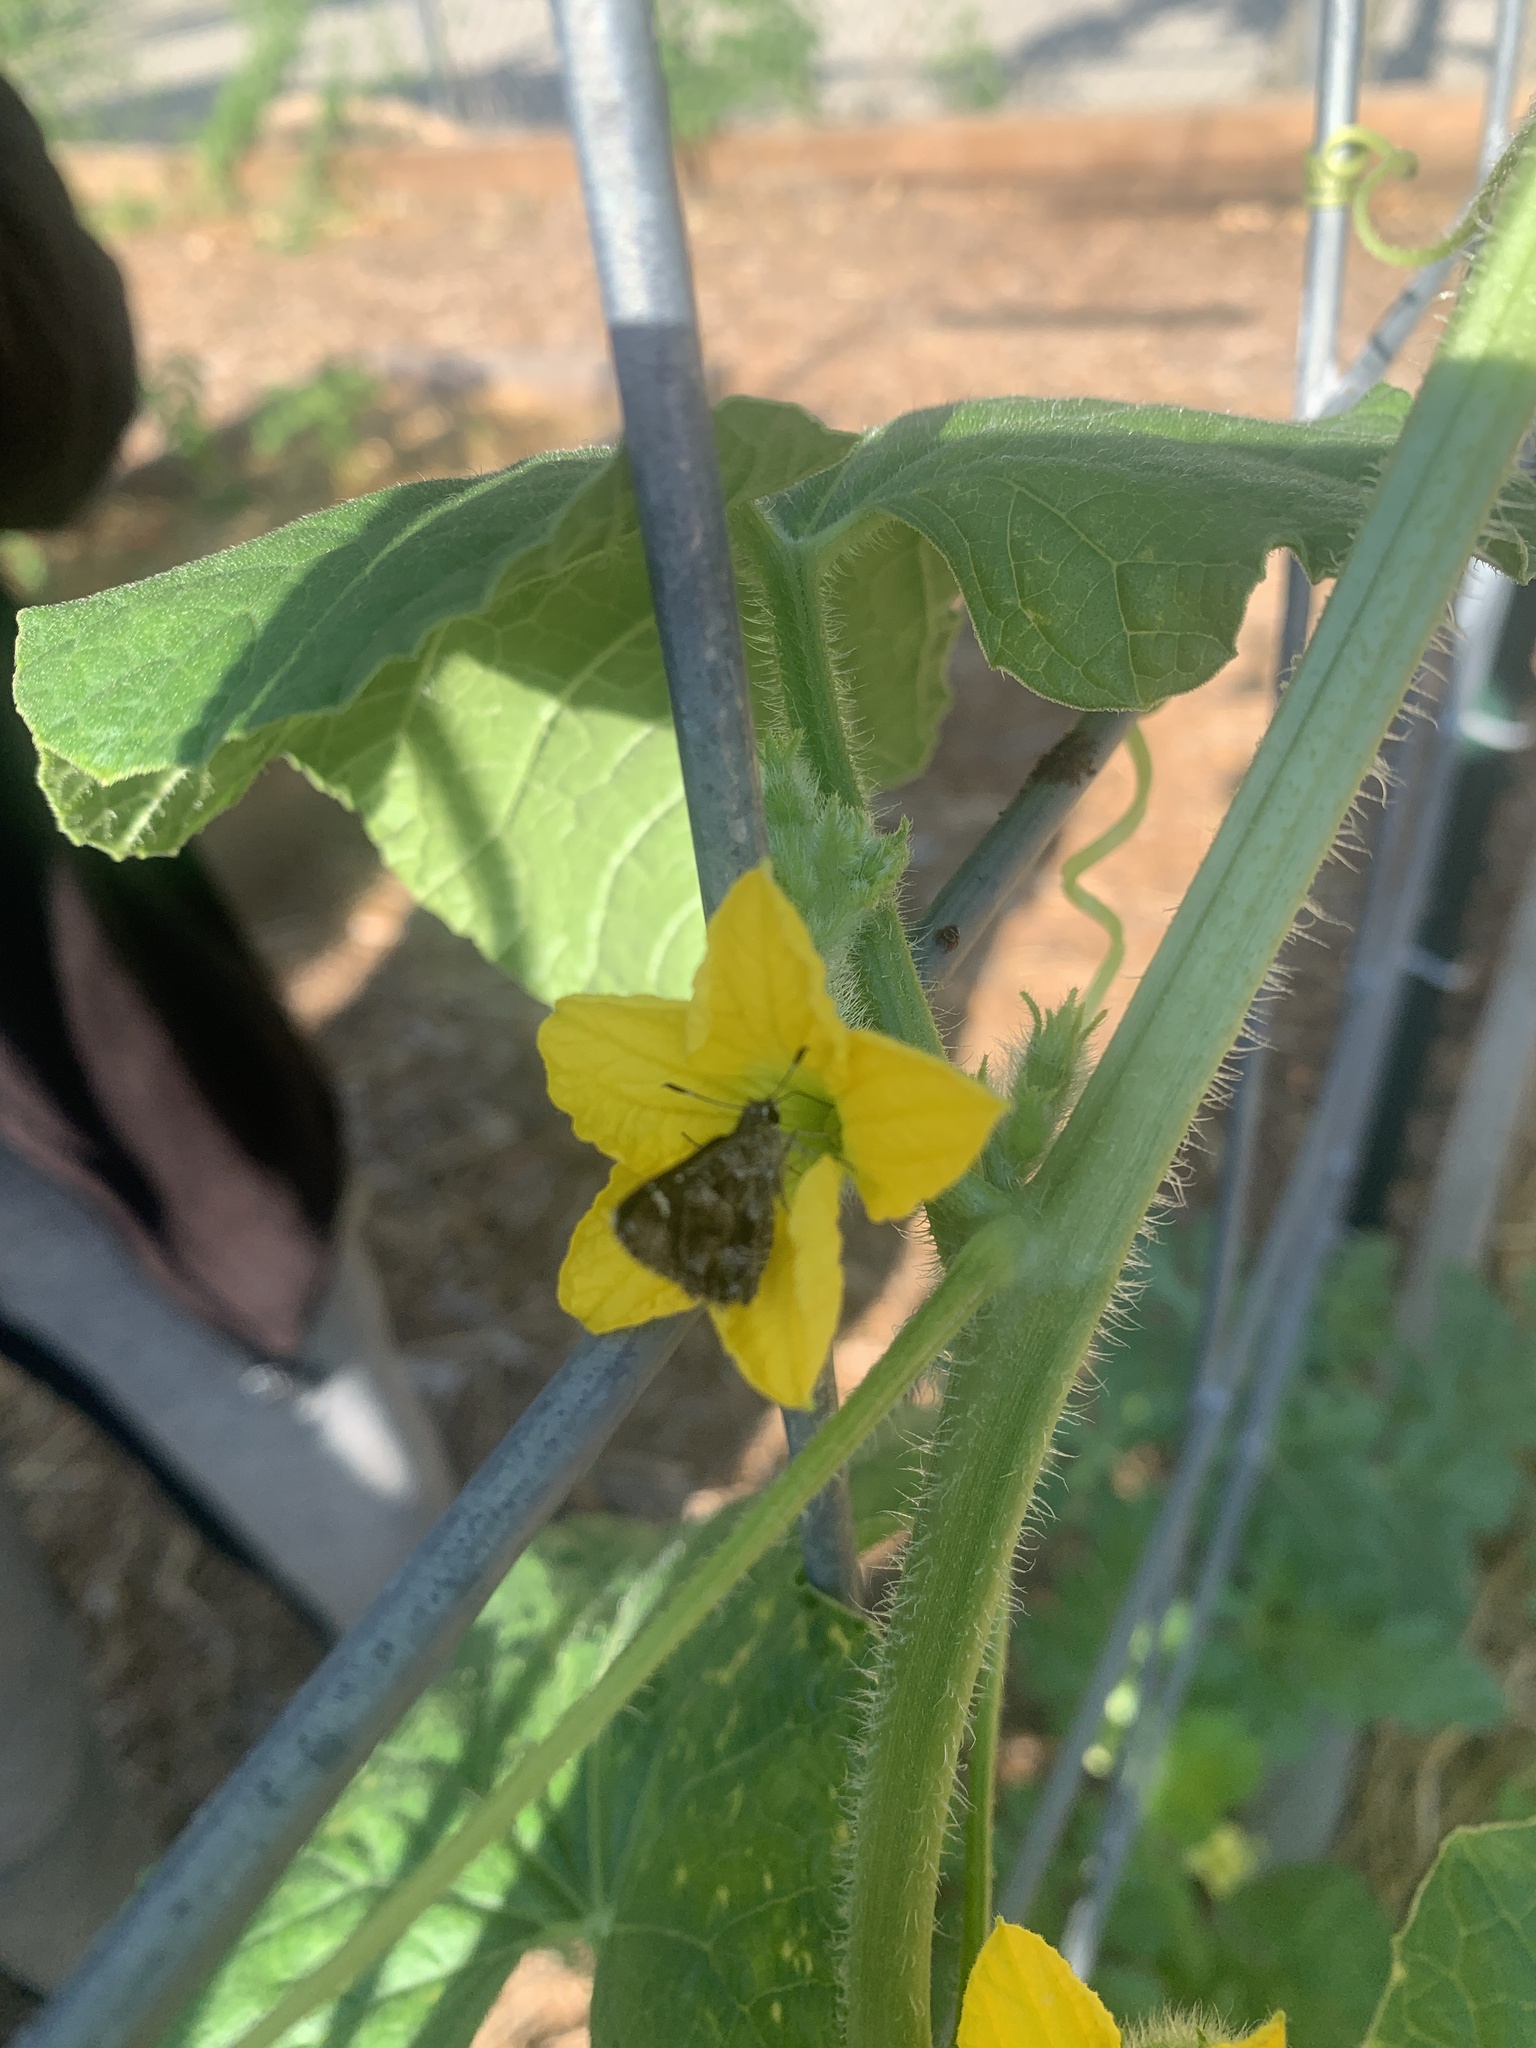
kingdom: Animalia
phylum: Arthropoda
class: Insecta
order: Lepidoptera
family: Hesperiidae
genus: Mastor
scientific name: Mastor nysa
